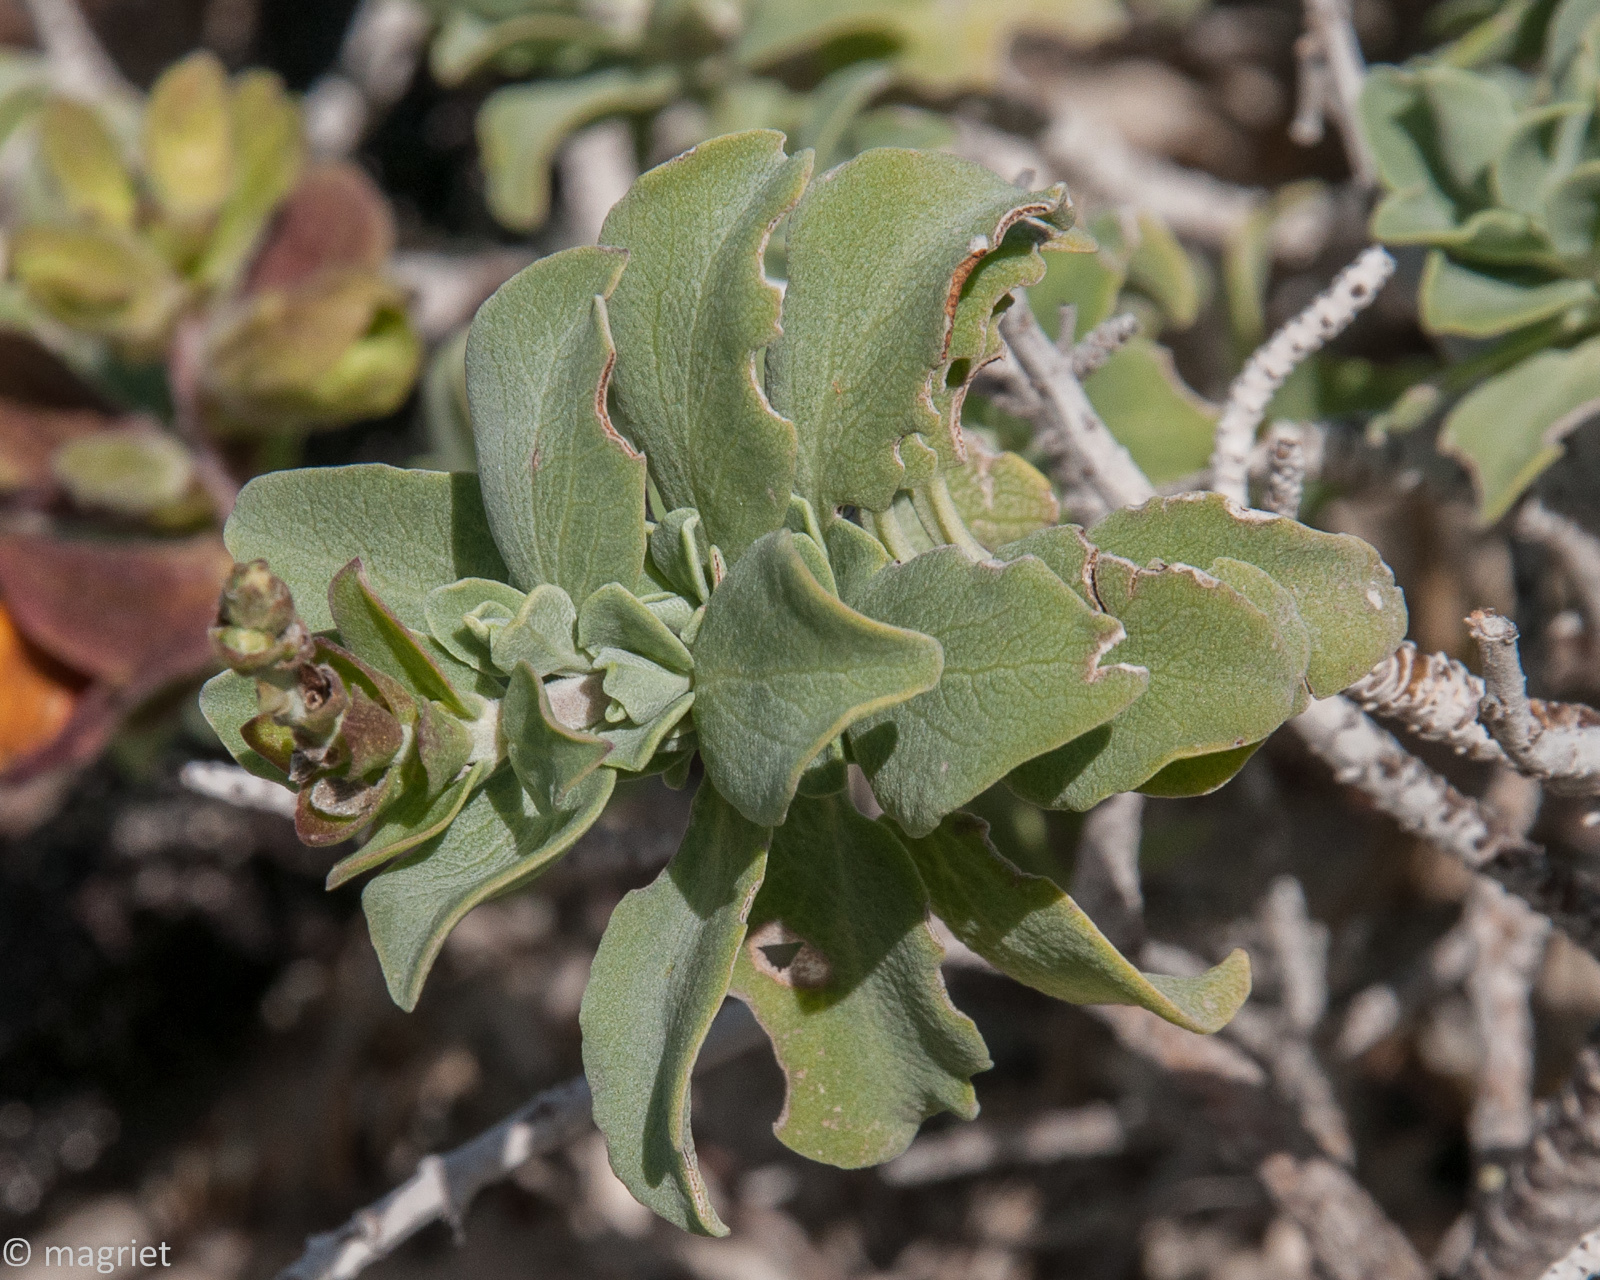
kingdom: Plantae
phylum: Tracheophyta
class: Magnoliopsida
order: Lamiales
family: Lamiaceae
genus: Salvia
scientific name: Salvia aurea
